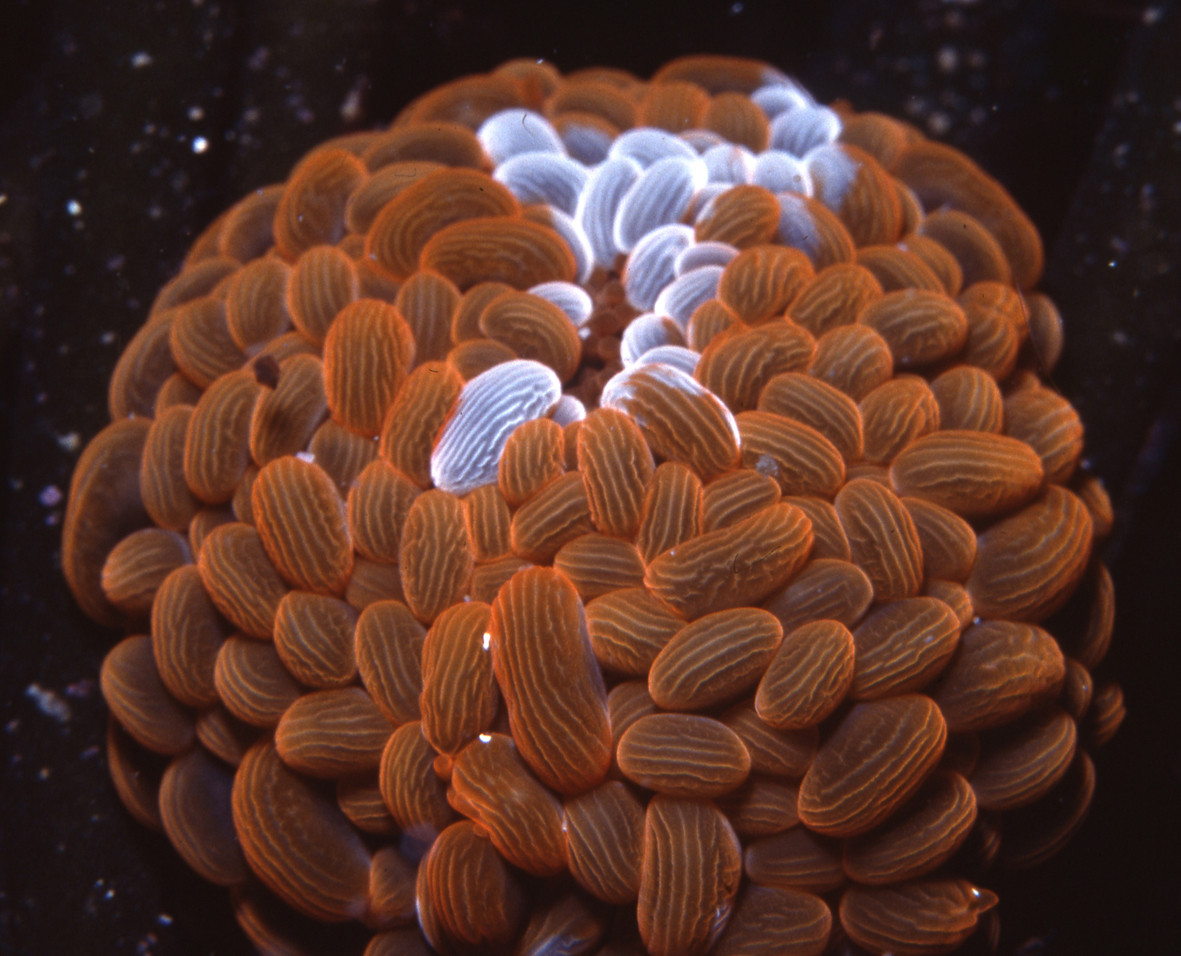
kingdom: Animalia
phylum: Cnidaria
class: Anthozoa
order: Actiniaria
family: Actiniidae
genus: Phlyctenactis
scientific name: Phlyctenactis tuberculosa
